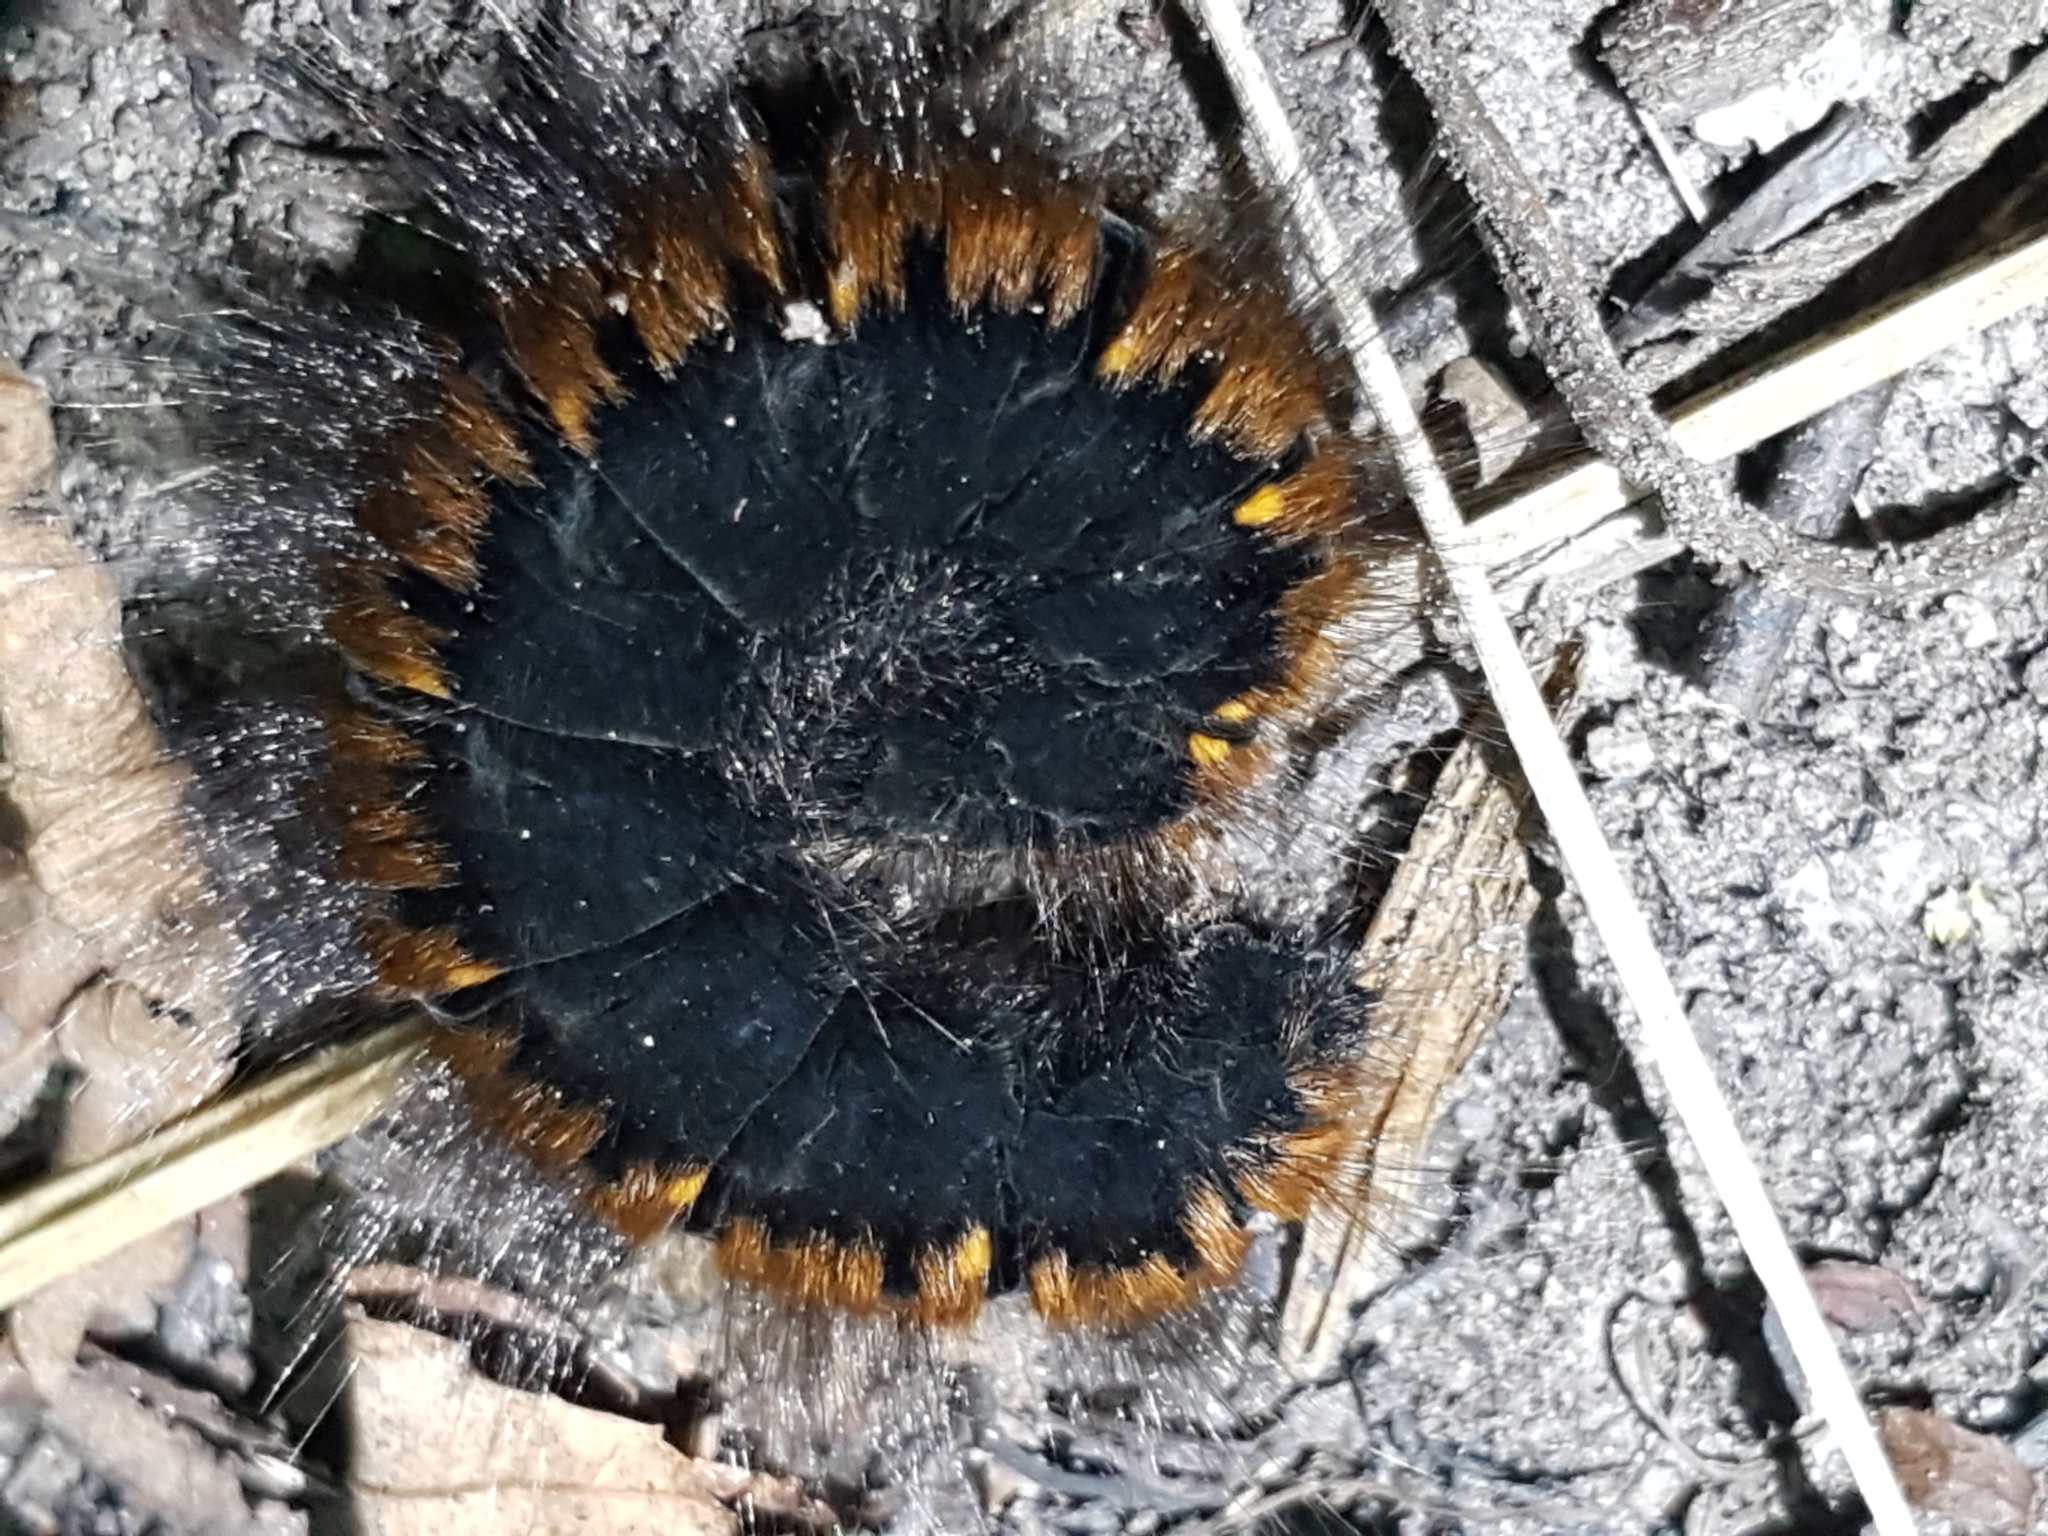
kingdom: Animalia
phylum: Arthropoda
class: Insecta
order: Lepidoptera
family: Lasiocampidae
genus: Macrothylacia
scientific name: Macrothylacia rubi
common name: Fox moth
